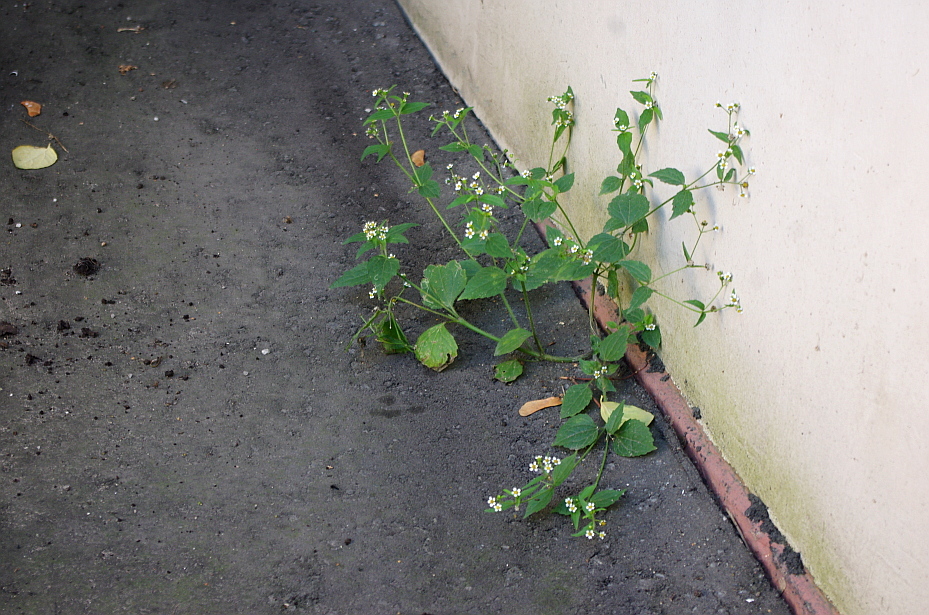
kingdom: Plantae
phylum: Tracheophyta
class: Magnoliopsida
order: Asterales
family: Asteraceae
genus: Galinsoga
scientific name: Galinsoga quadriradiata
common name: Shaggy soldier
